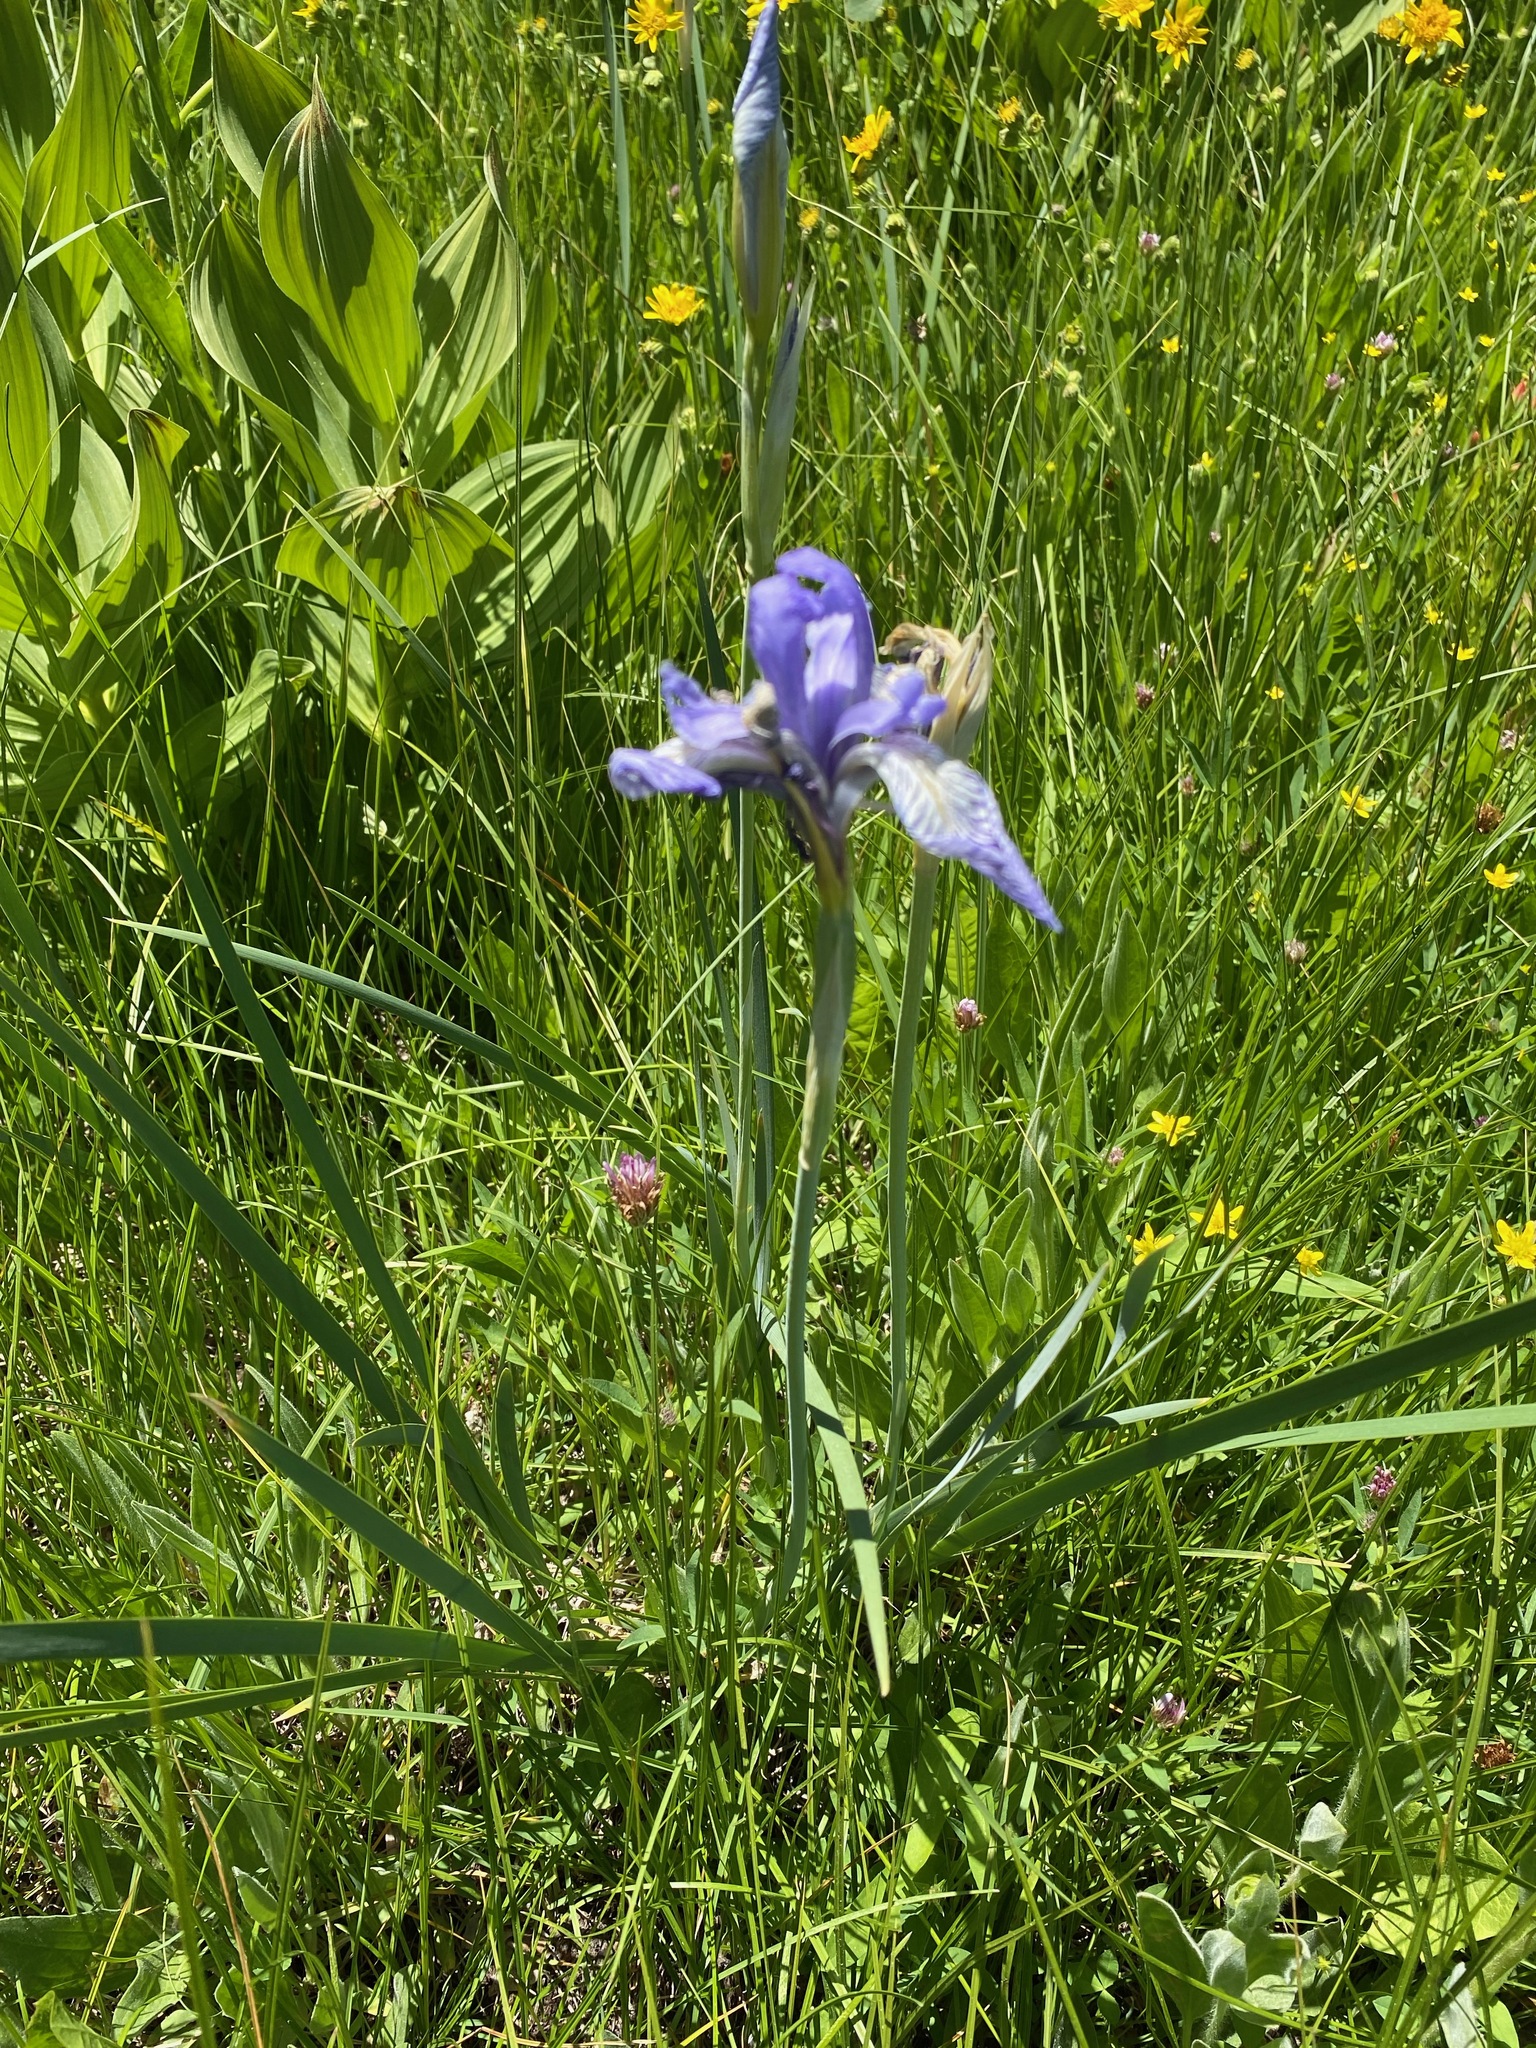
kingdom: Plantae
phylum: Tracheophyta
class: Liliopsida
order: Asparagales
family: Iridaceae
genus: Iris
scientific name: Iris missouriensis
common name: Rocky mountain iris
